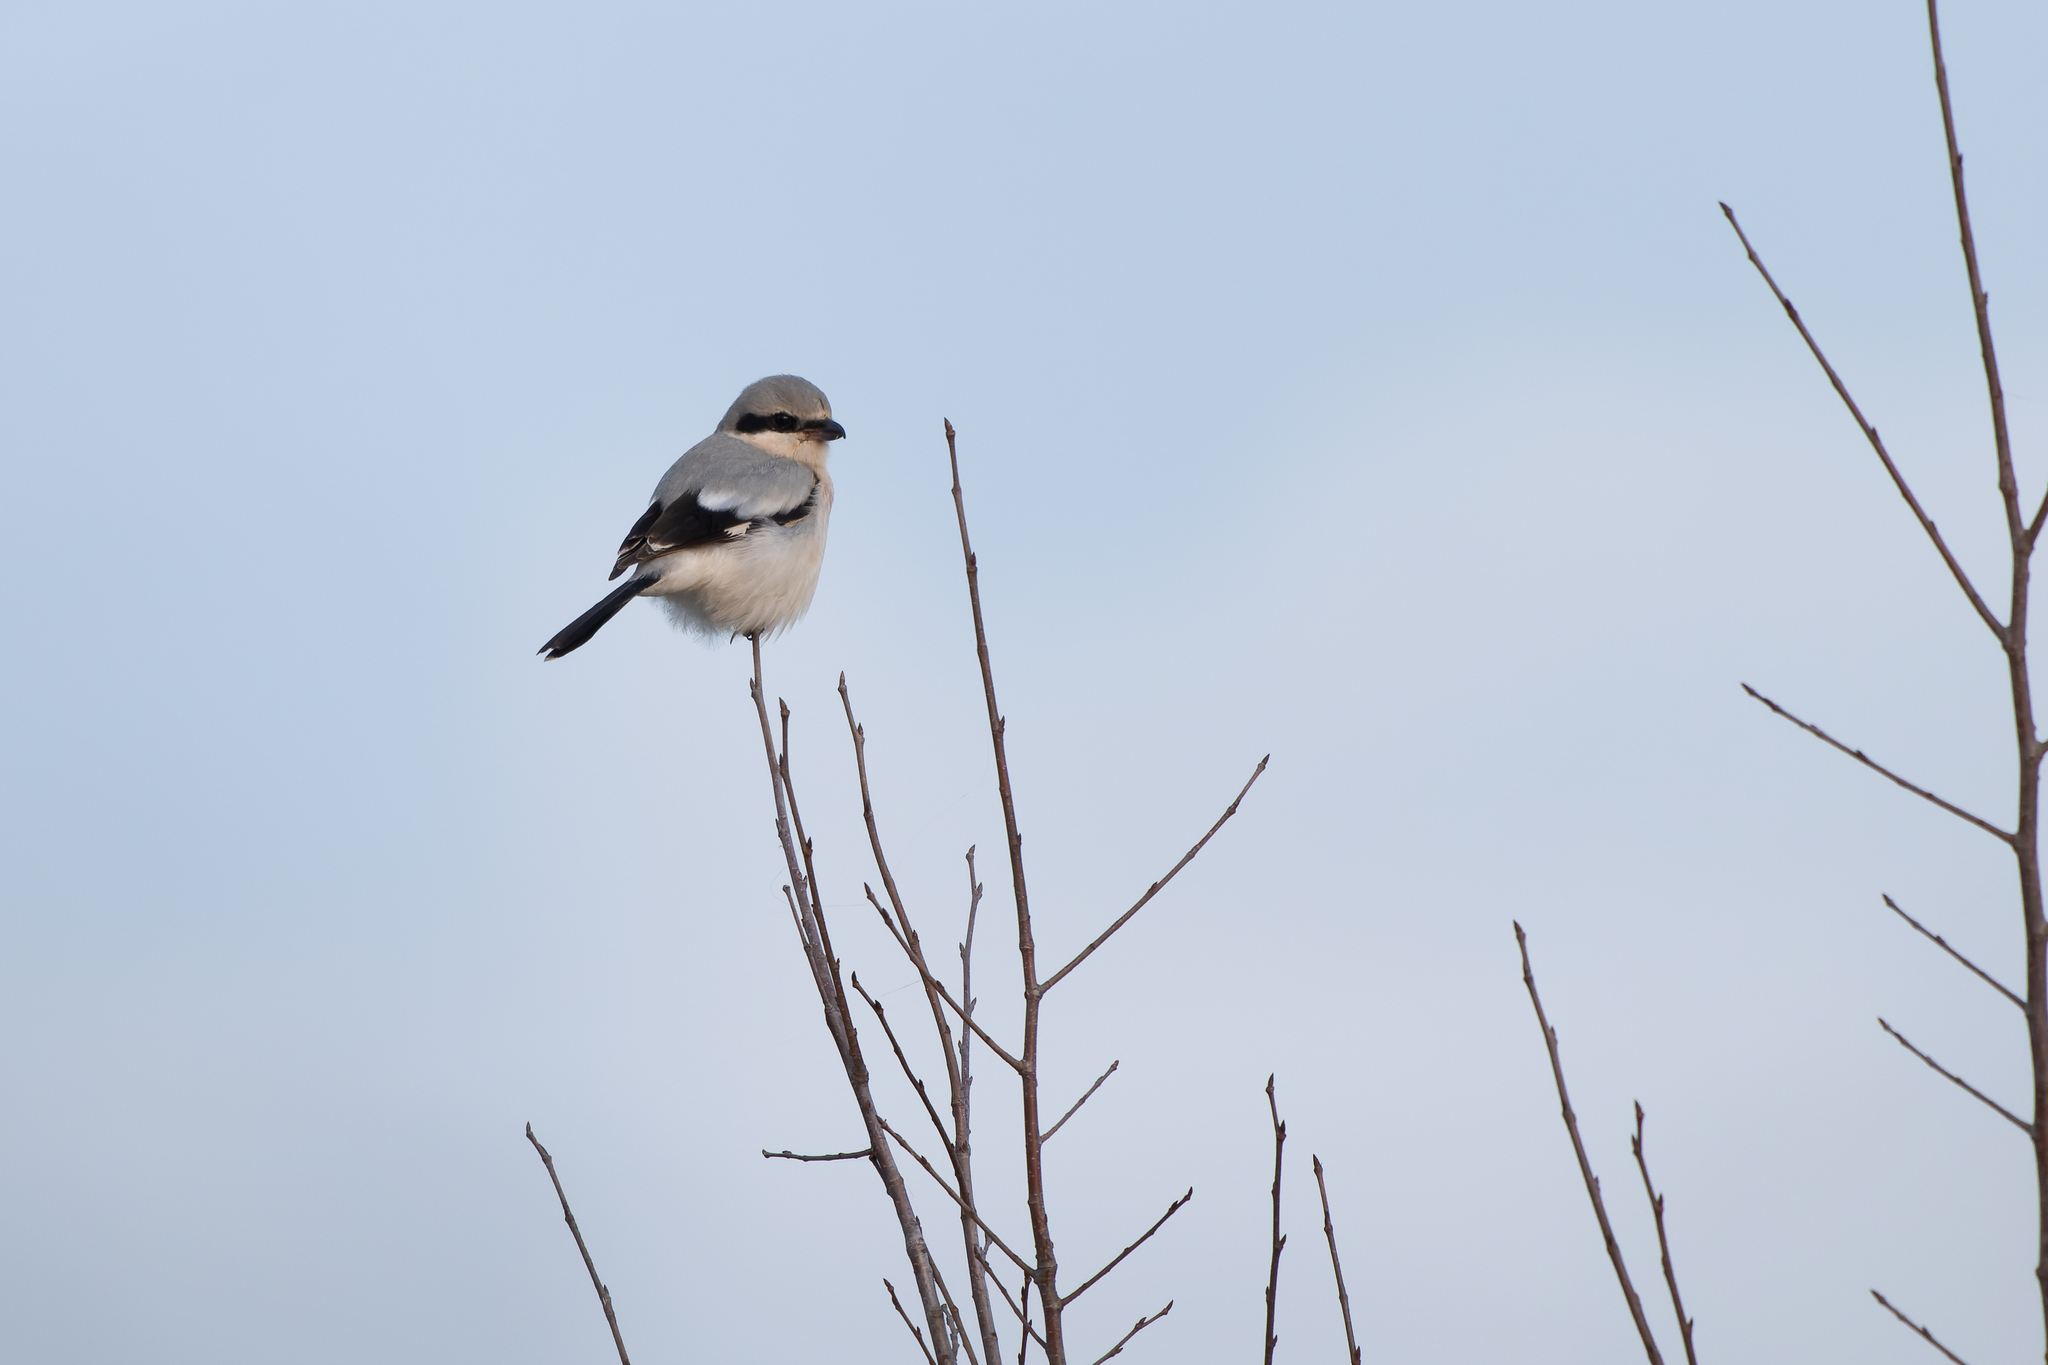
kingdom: Animalia
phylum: Chordata
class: Aves
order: Passeriformes
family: Laniidae
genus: Lanius
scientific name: Lanius excubitor
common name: Great grey shrike
